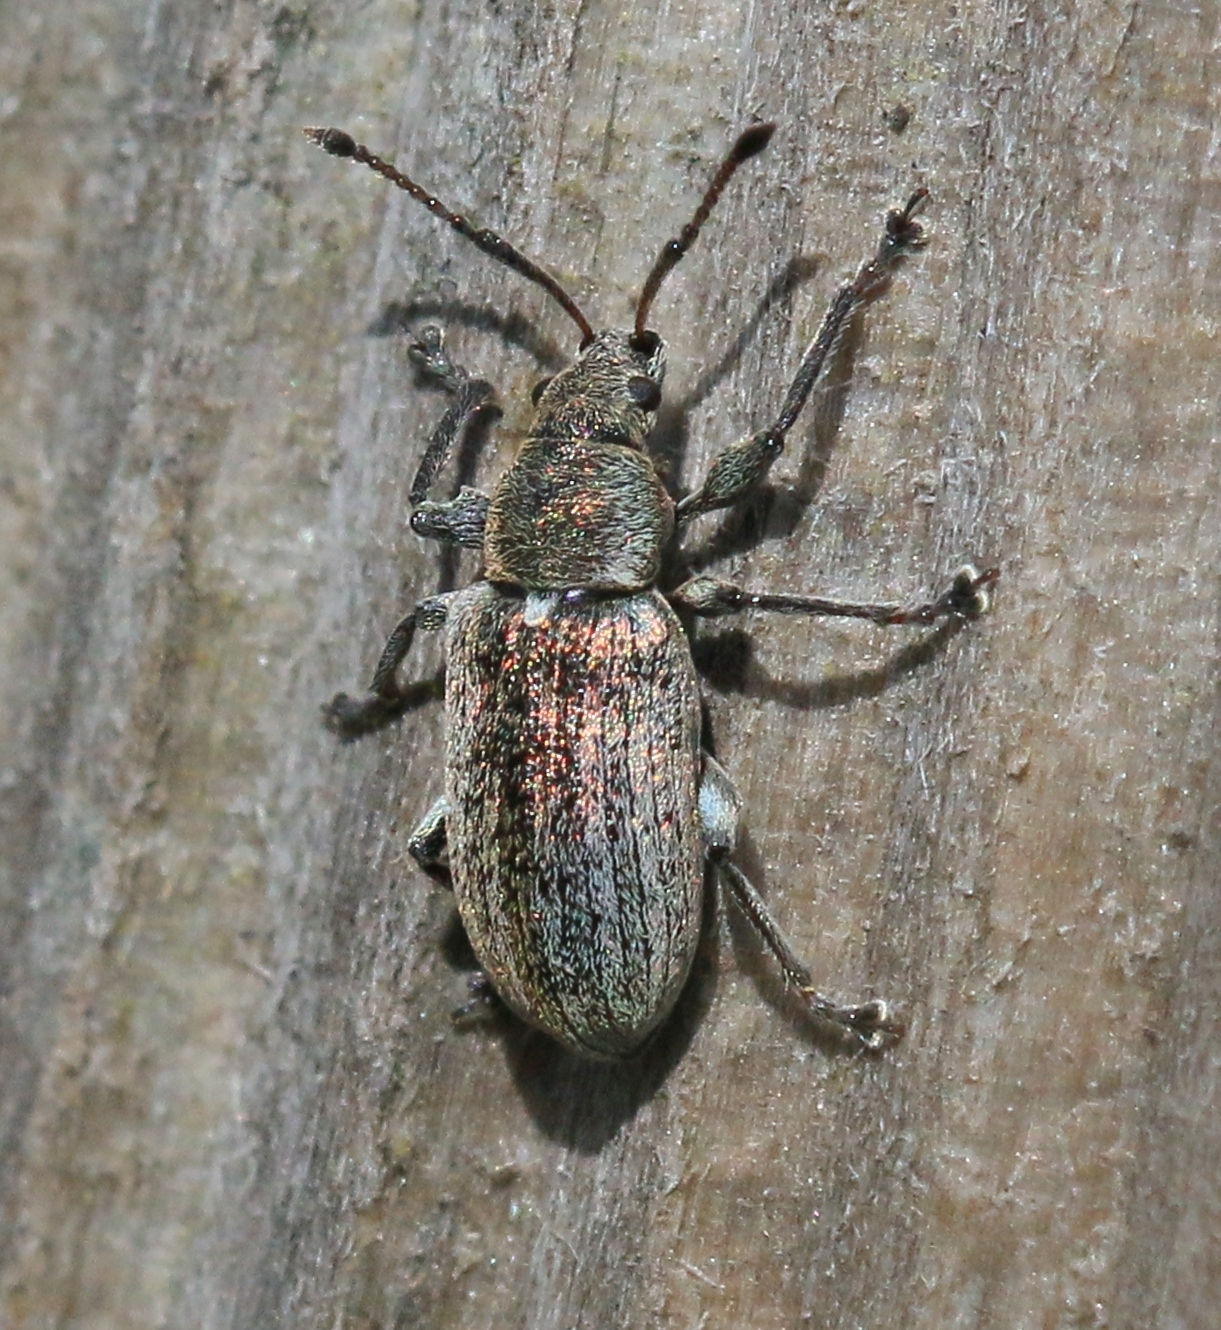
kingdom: Animalia
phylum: Arthropoda
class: Insecta
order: Coleoptera
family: Curculionidae
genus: Phyllobius
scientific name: Phyllobius pyri
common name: Common leaf weevil
